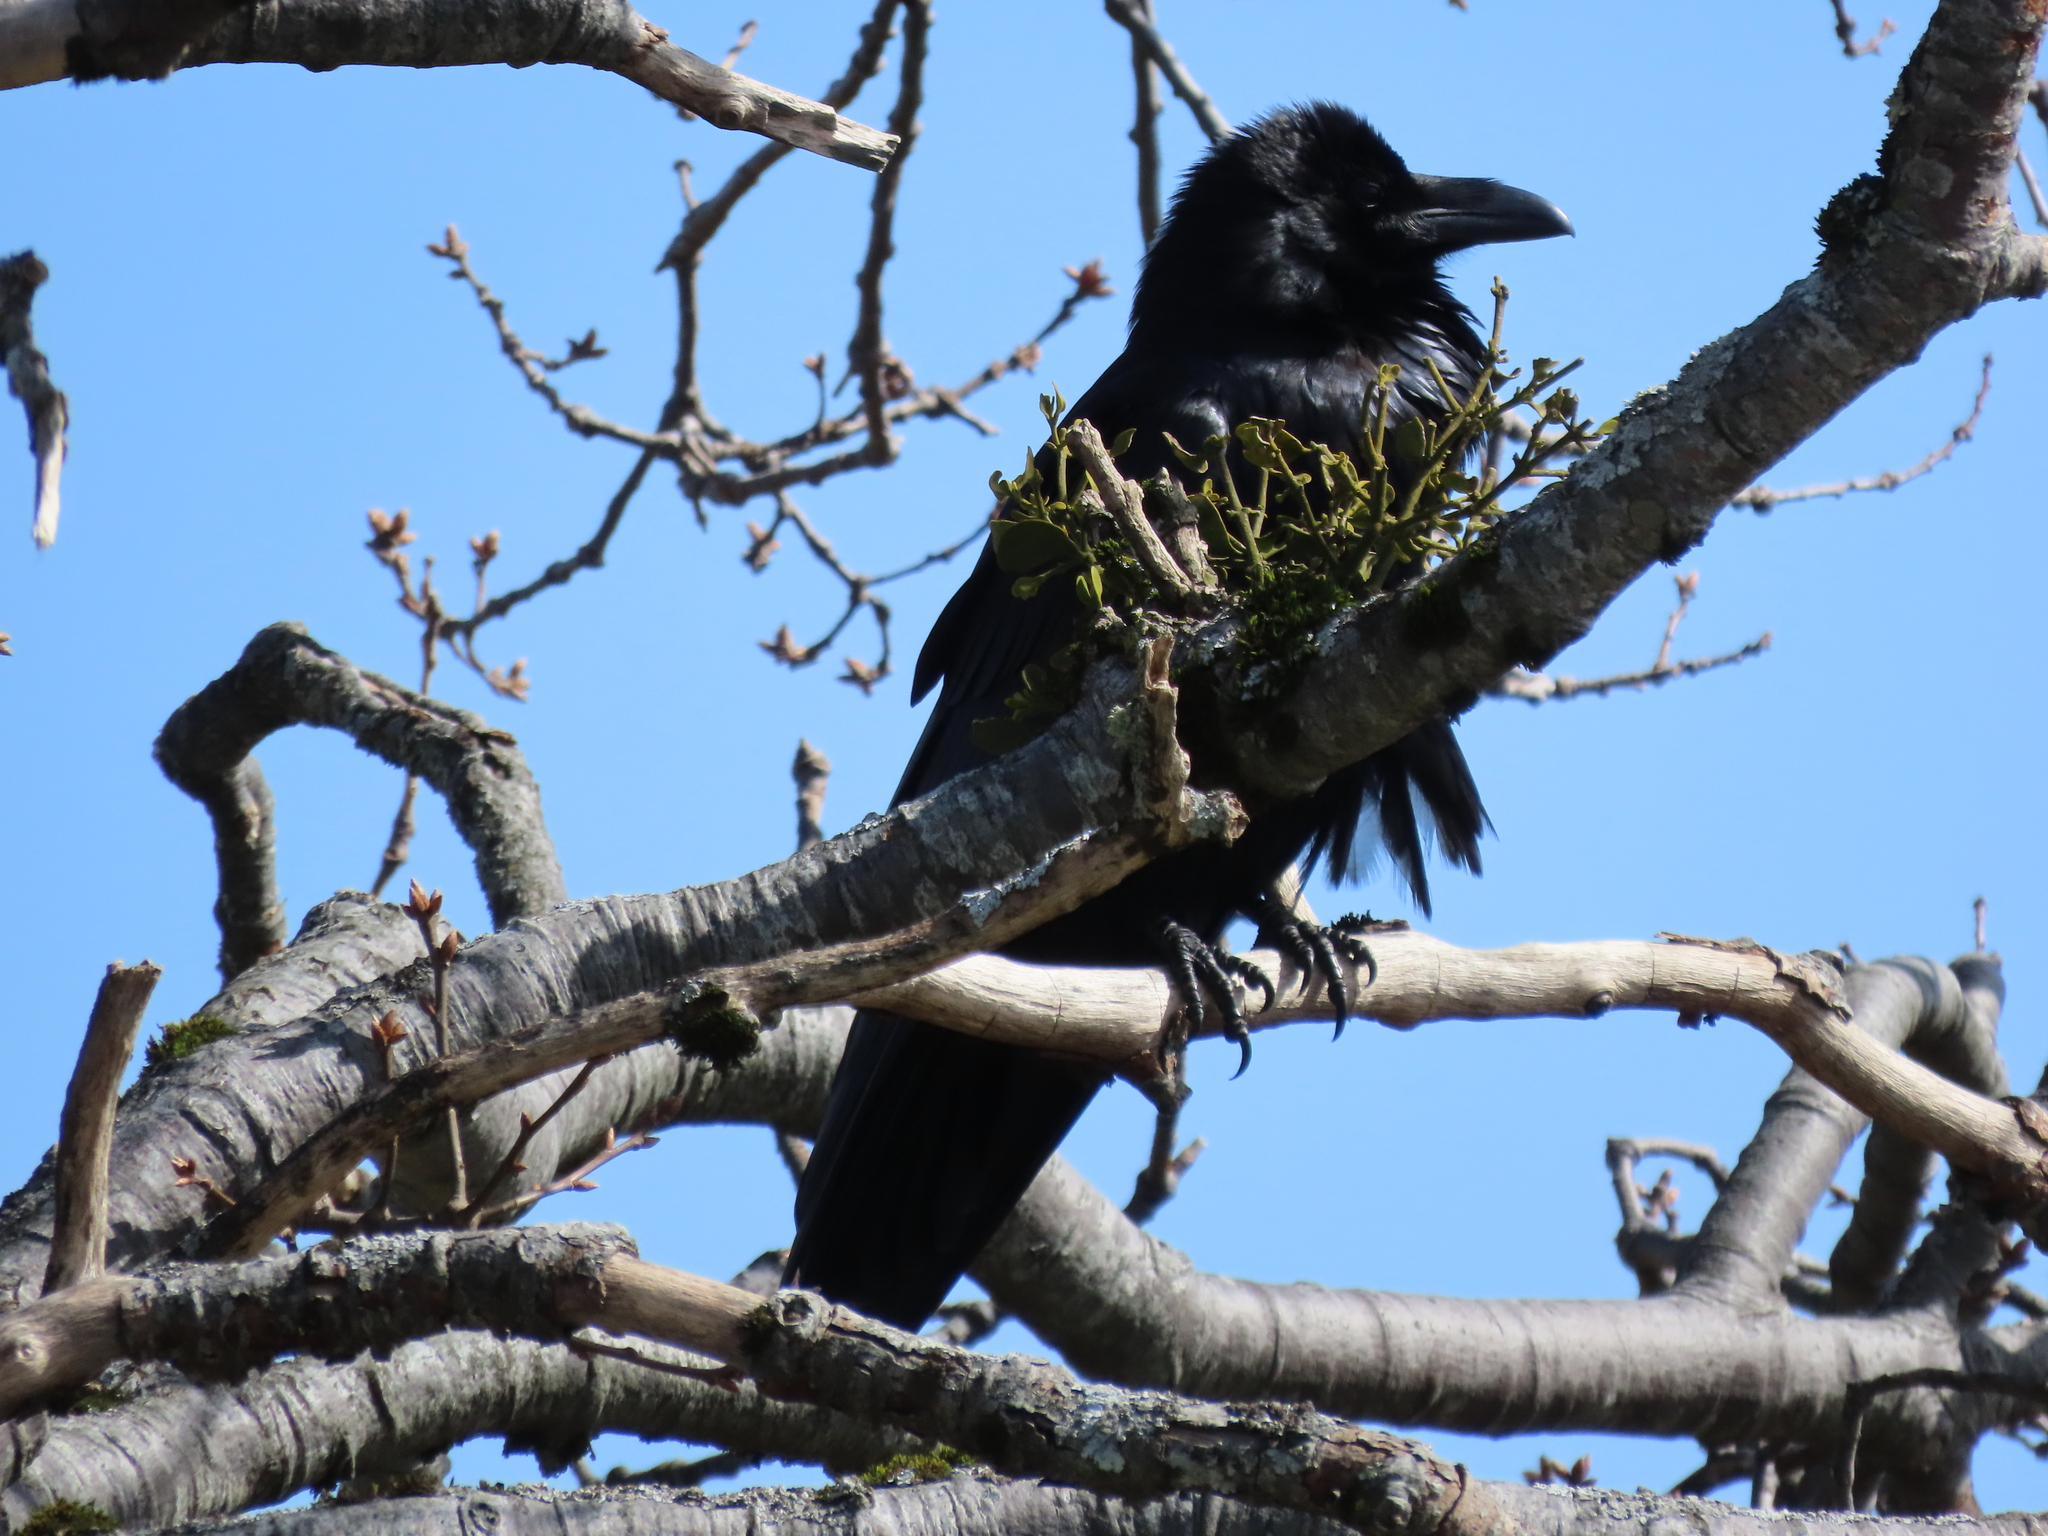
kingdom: Animalia
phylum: Chordata
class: Aves
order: Passeriformes
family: Corvidae
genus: Corvus
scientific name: Corvus corax
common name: Common raven
